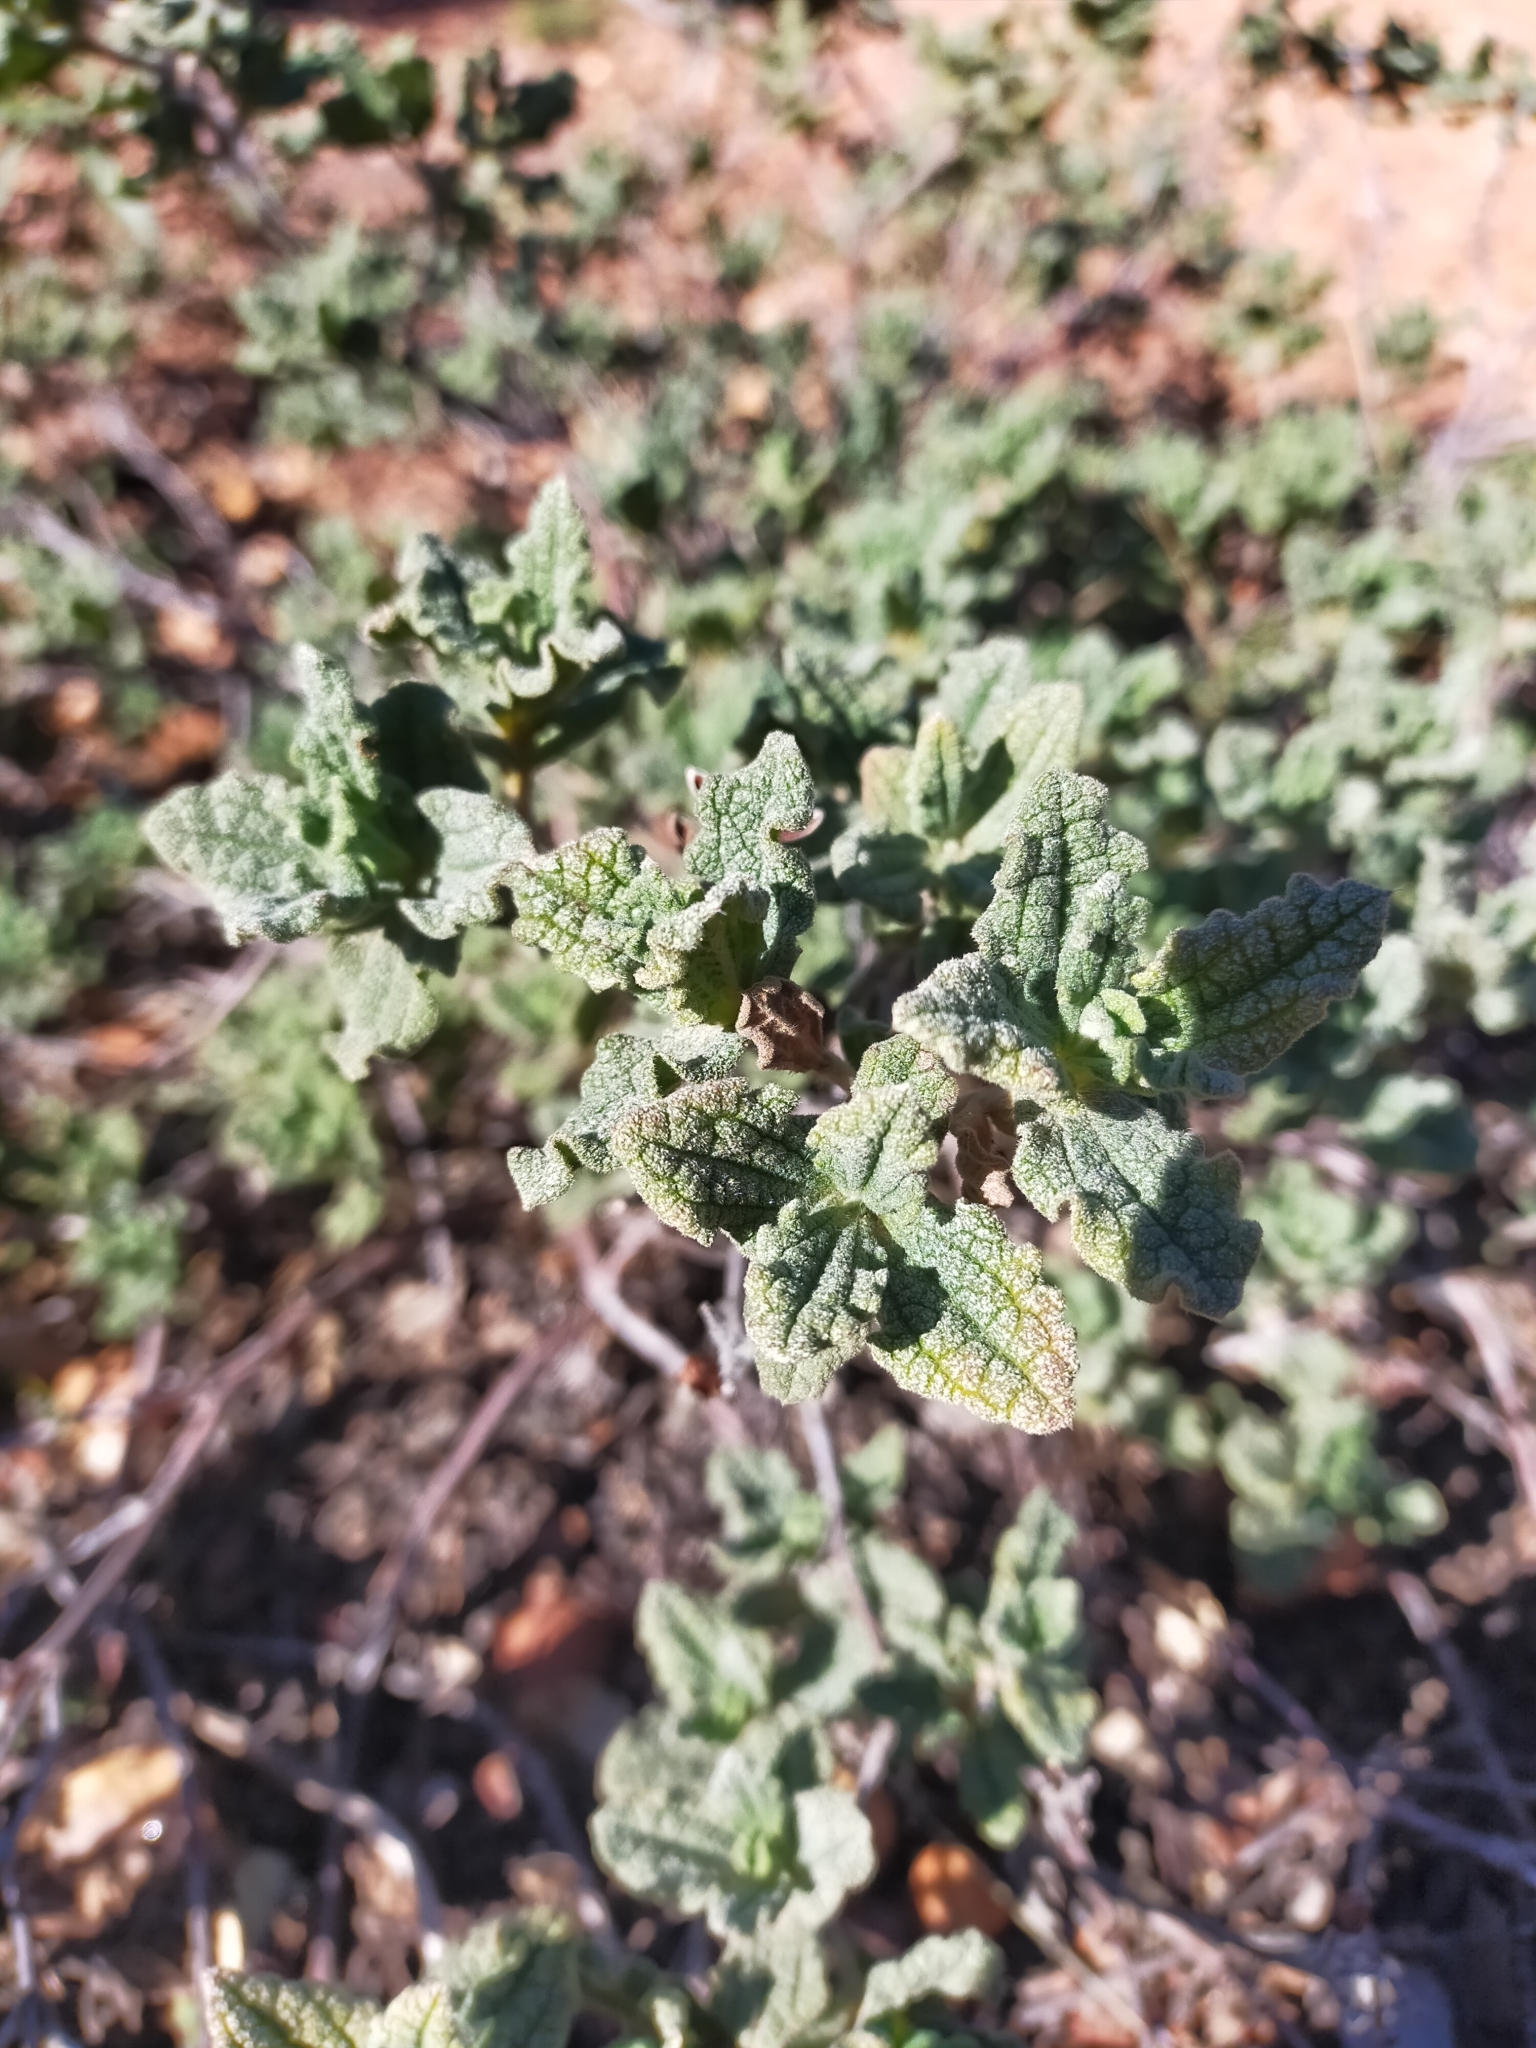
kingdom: Plantae
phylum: Tracheophyta
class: Magnoliopsida
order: Malvales
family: Cistaceae
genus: Cistus
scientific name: Cistus crispus
